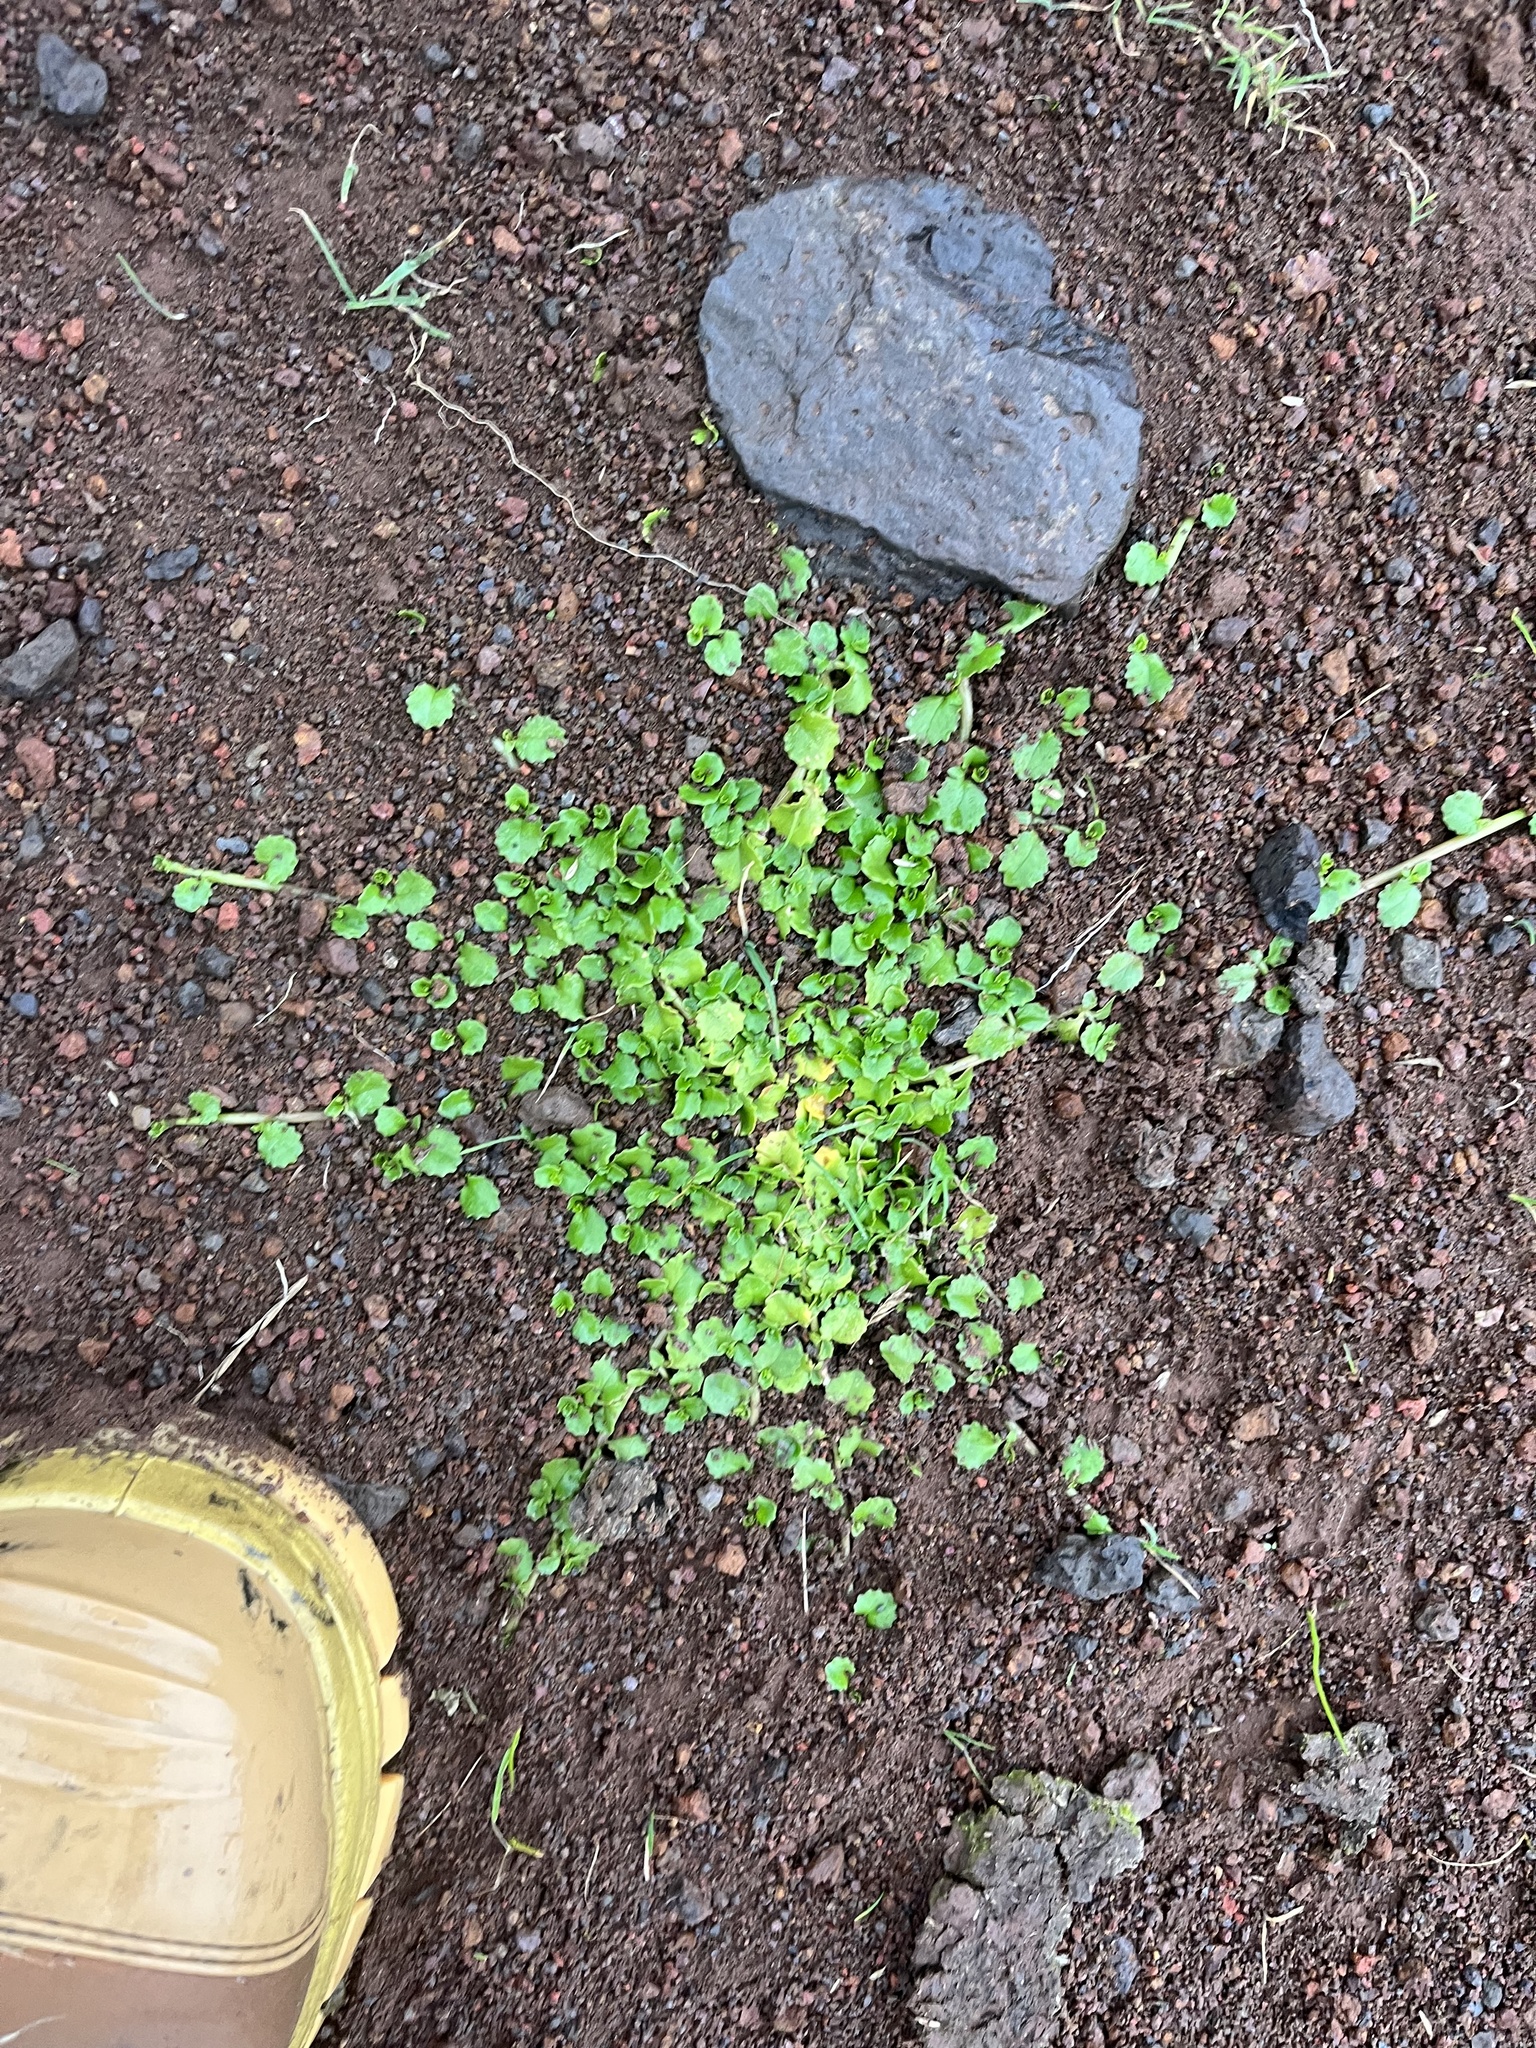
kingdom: Plantae
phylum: Tracheophyta
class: Magnoliopsida
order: Asterales
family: Campanulaceae
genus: Lobelia
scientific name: Lobelia arenaria
